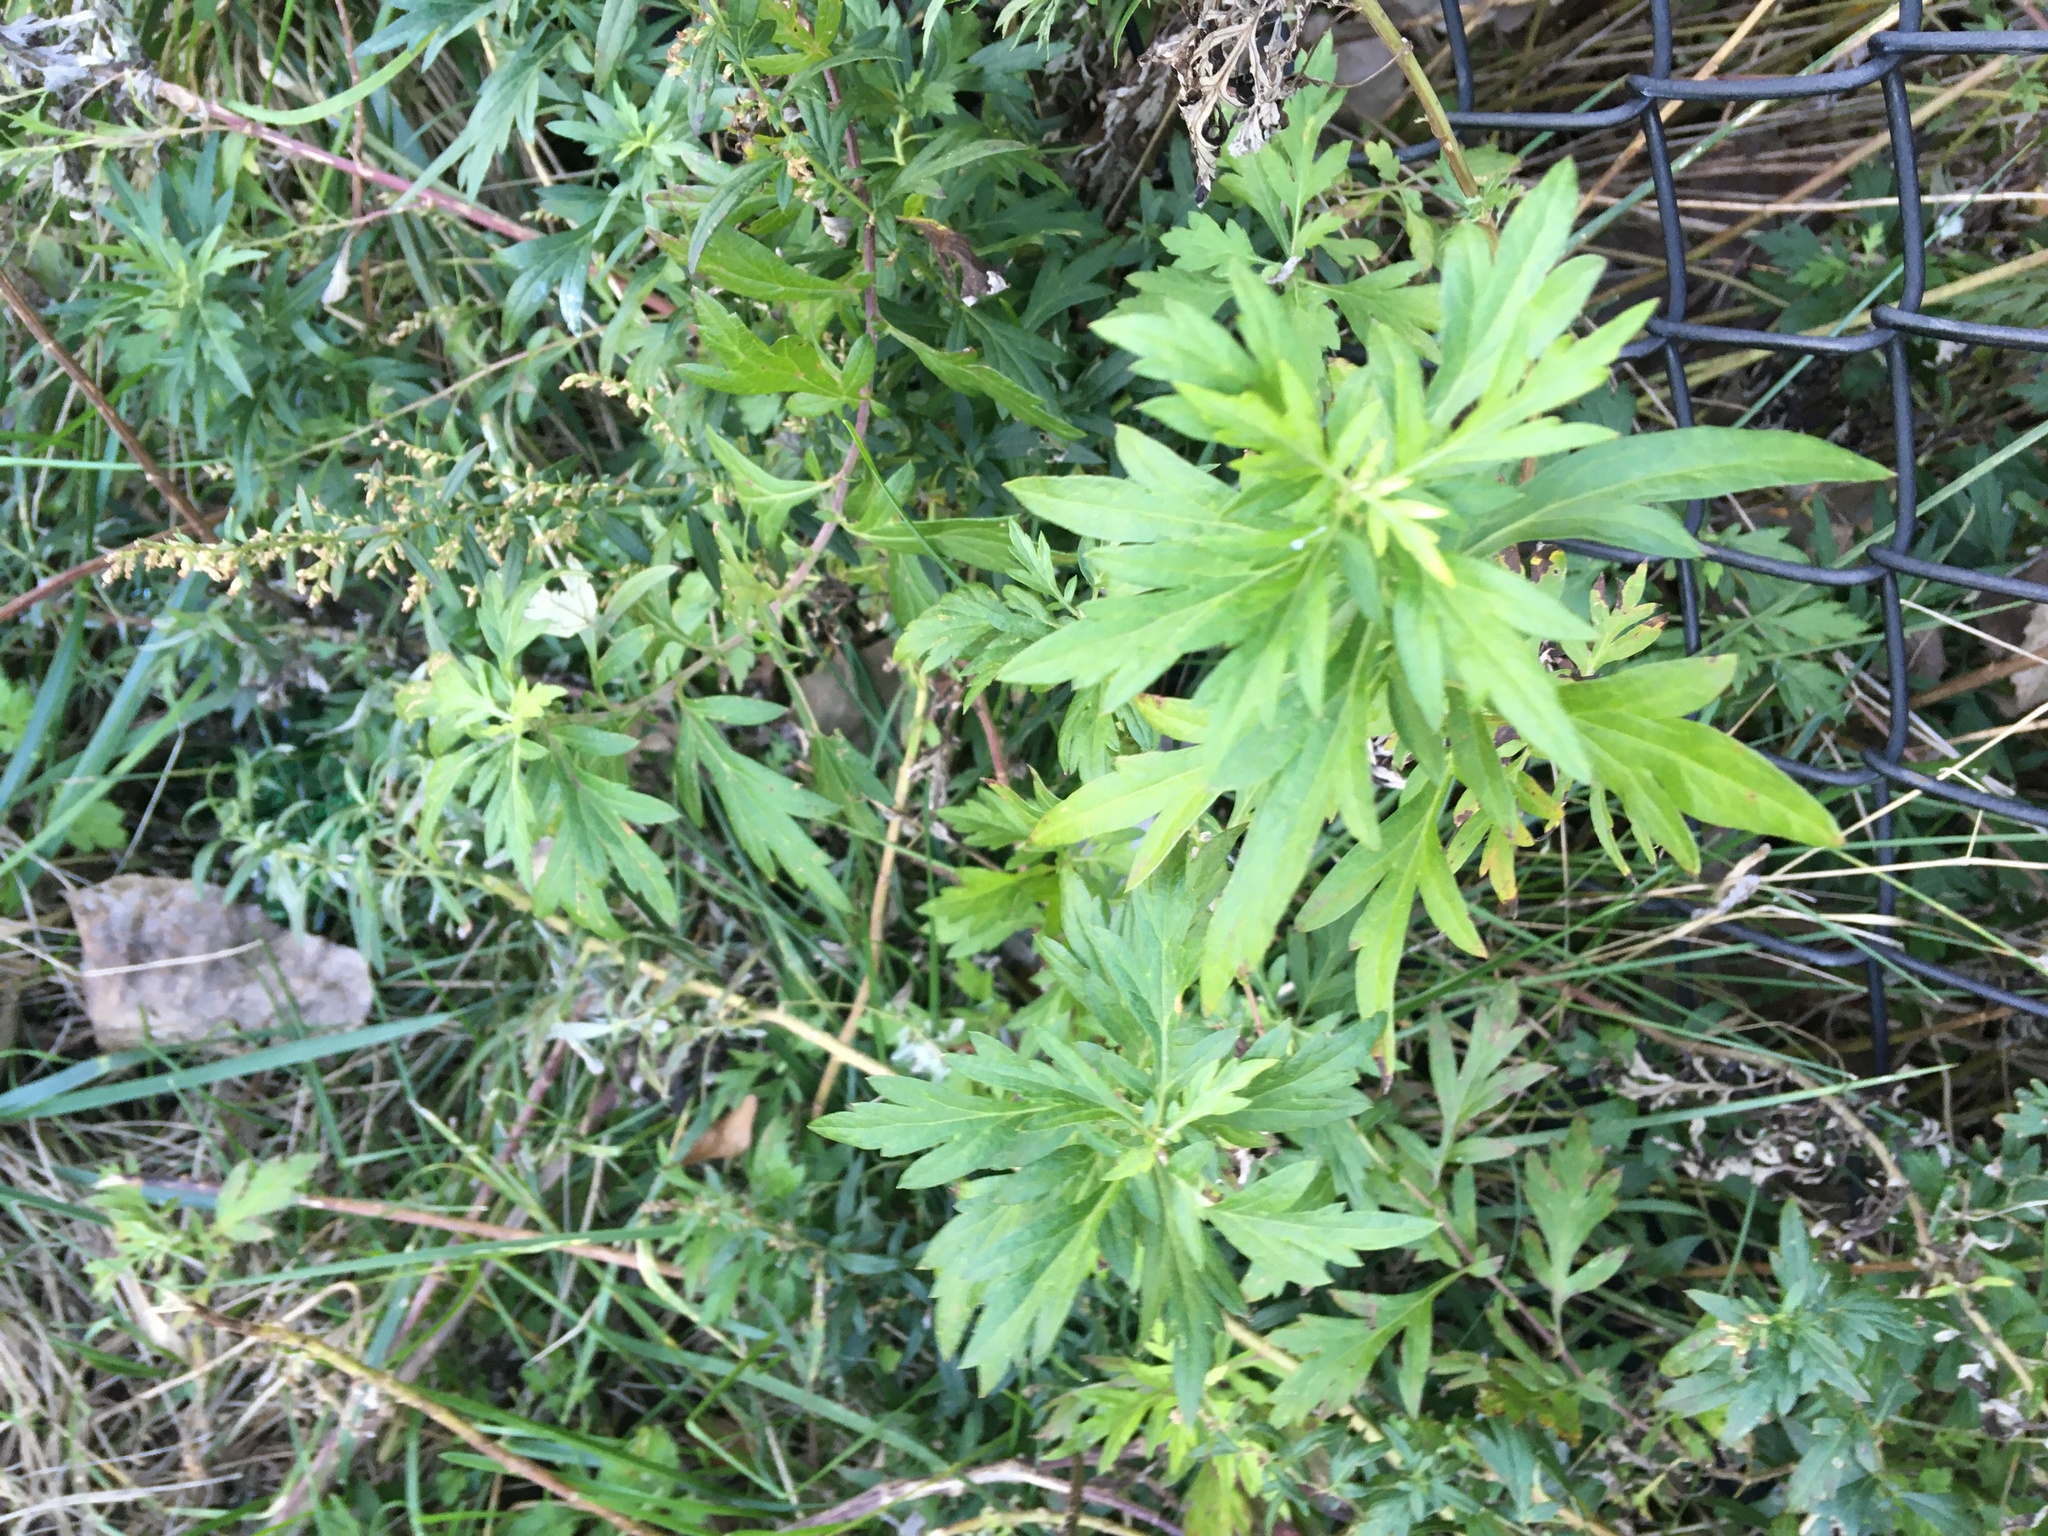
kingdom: Plantae
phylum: Tracheophyta
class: Magnoliopsida
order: Asterales
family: Asteraceae
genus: Artemisia
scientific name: Artemisia vulgaris
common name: Mugwort
